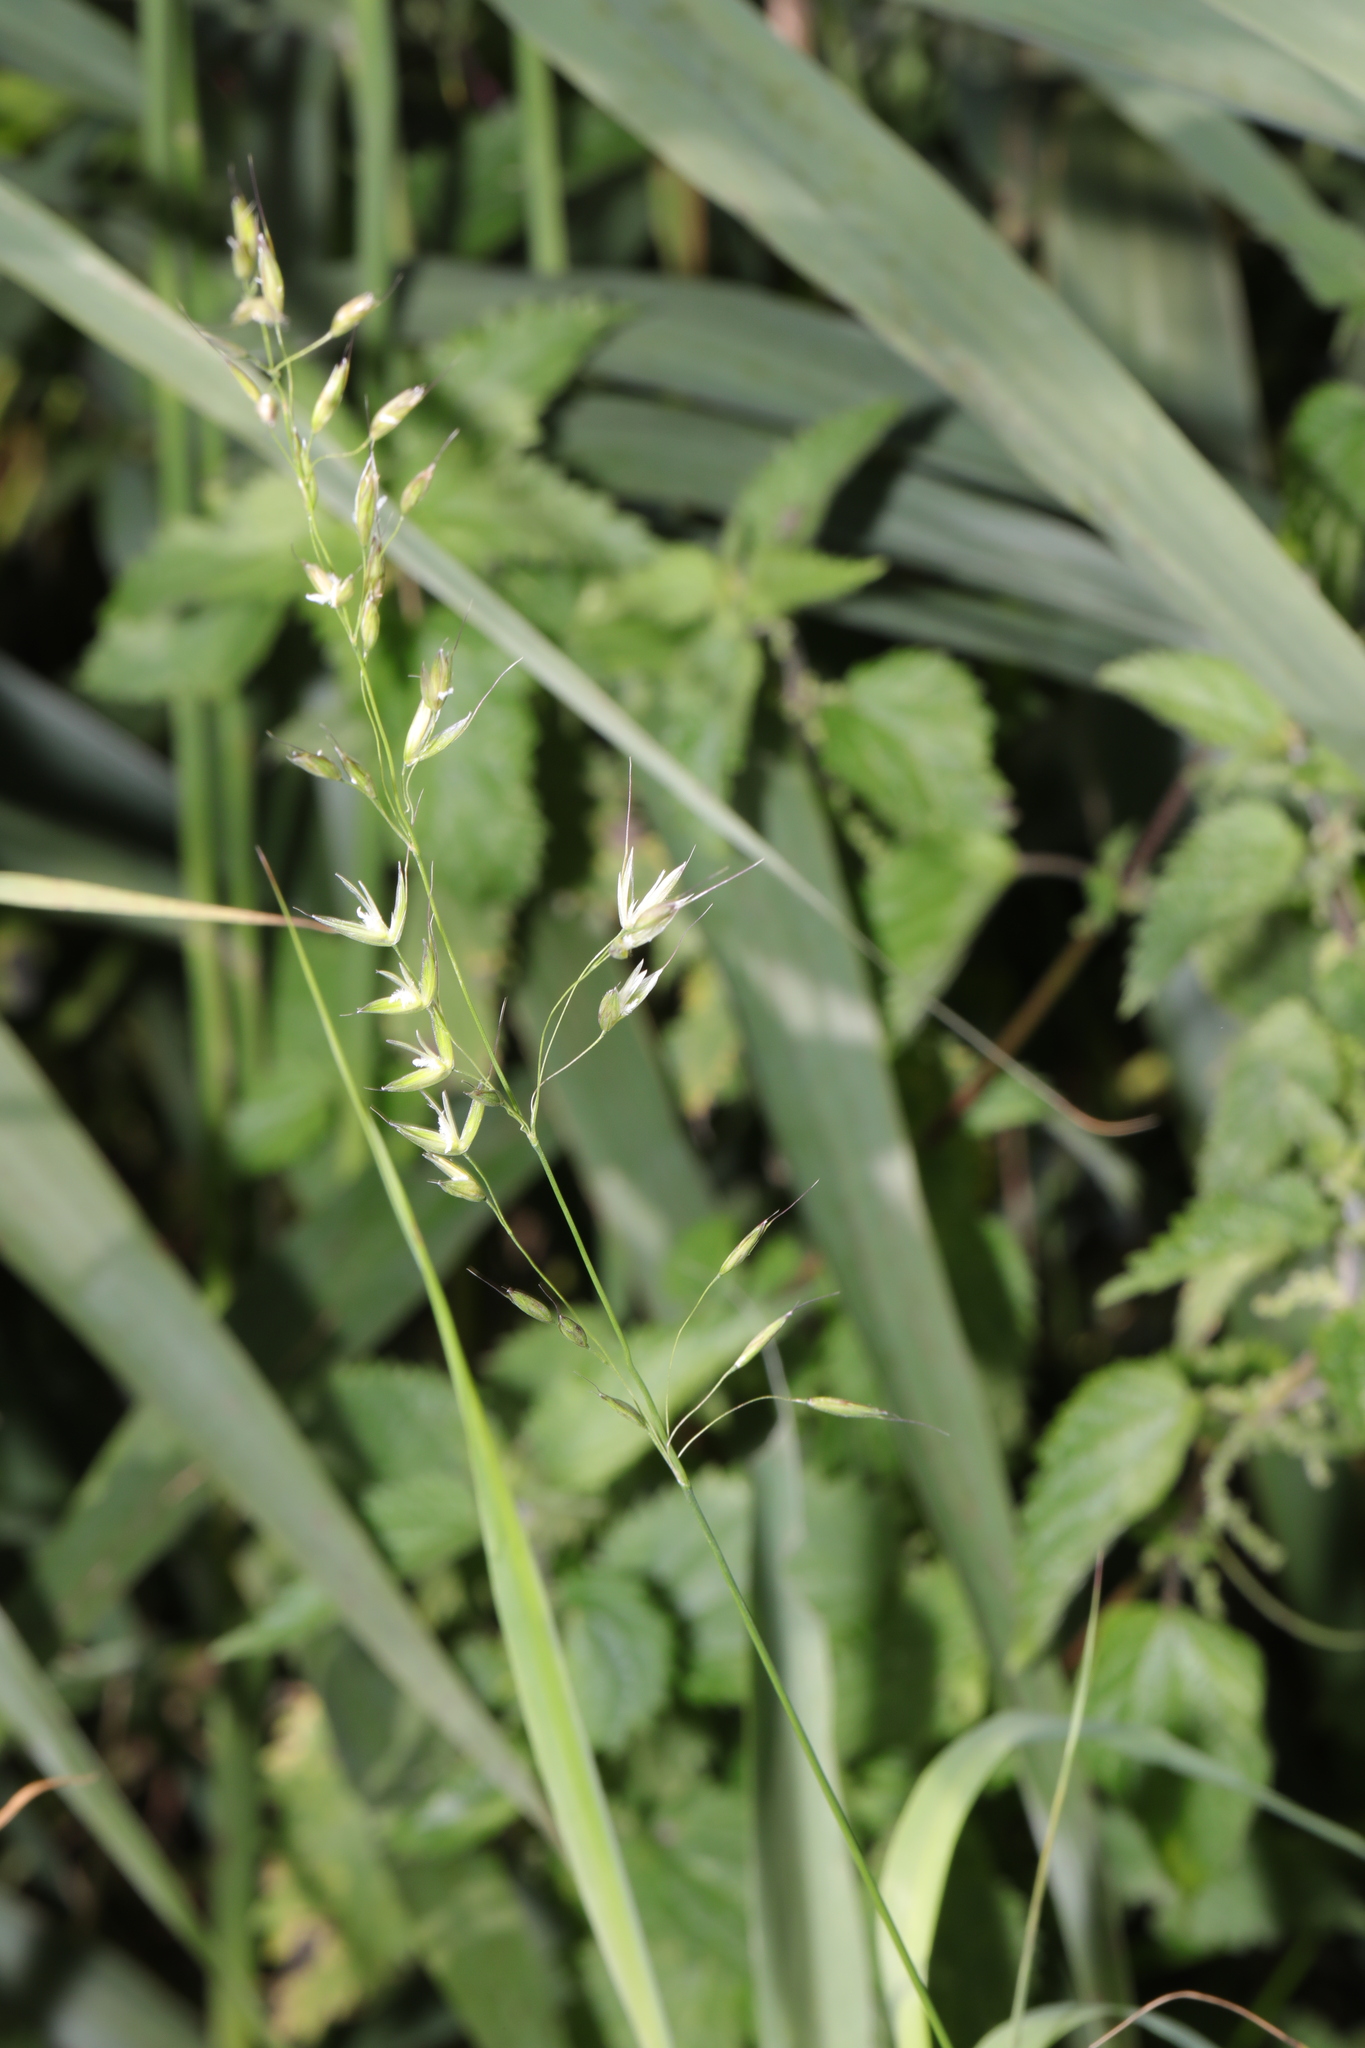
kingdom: Plantae
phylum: Tracheophyta
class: Liliopsida
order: Poales
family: Poaceae
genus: Arrhenatherum
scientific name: Arrhenatherum elatius
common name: Tall oatgrass
